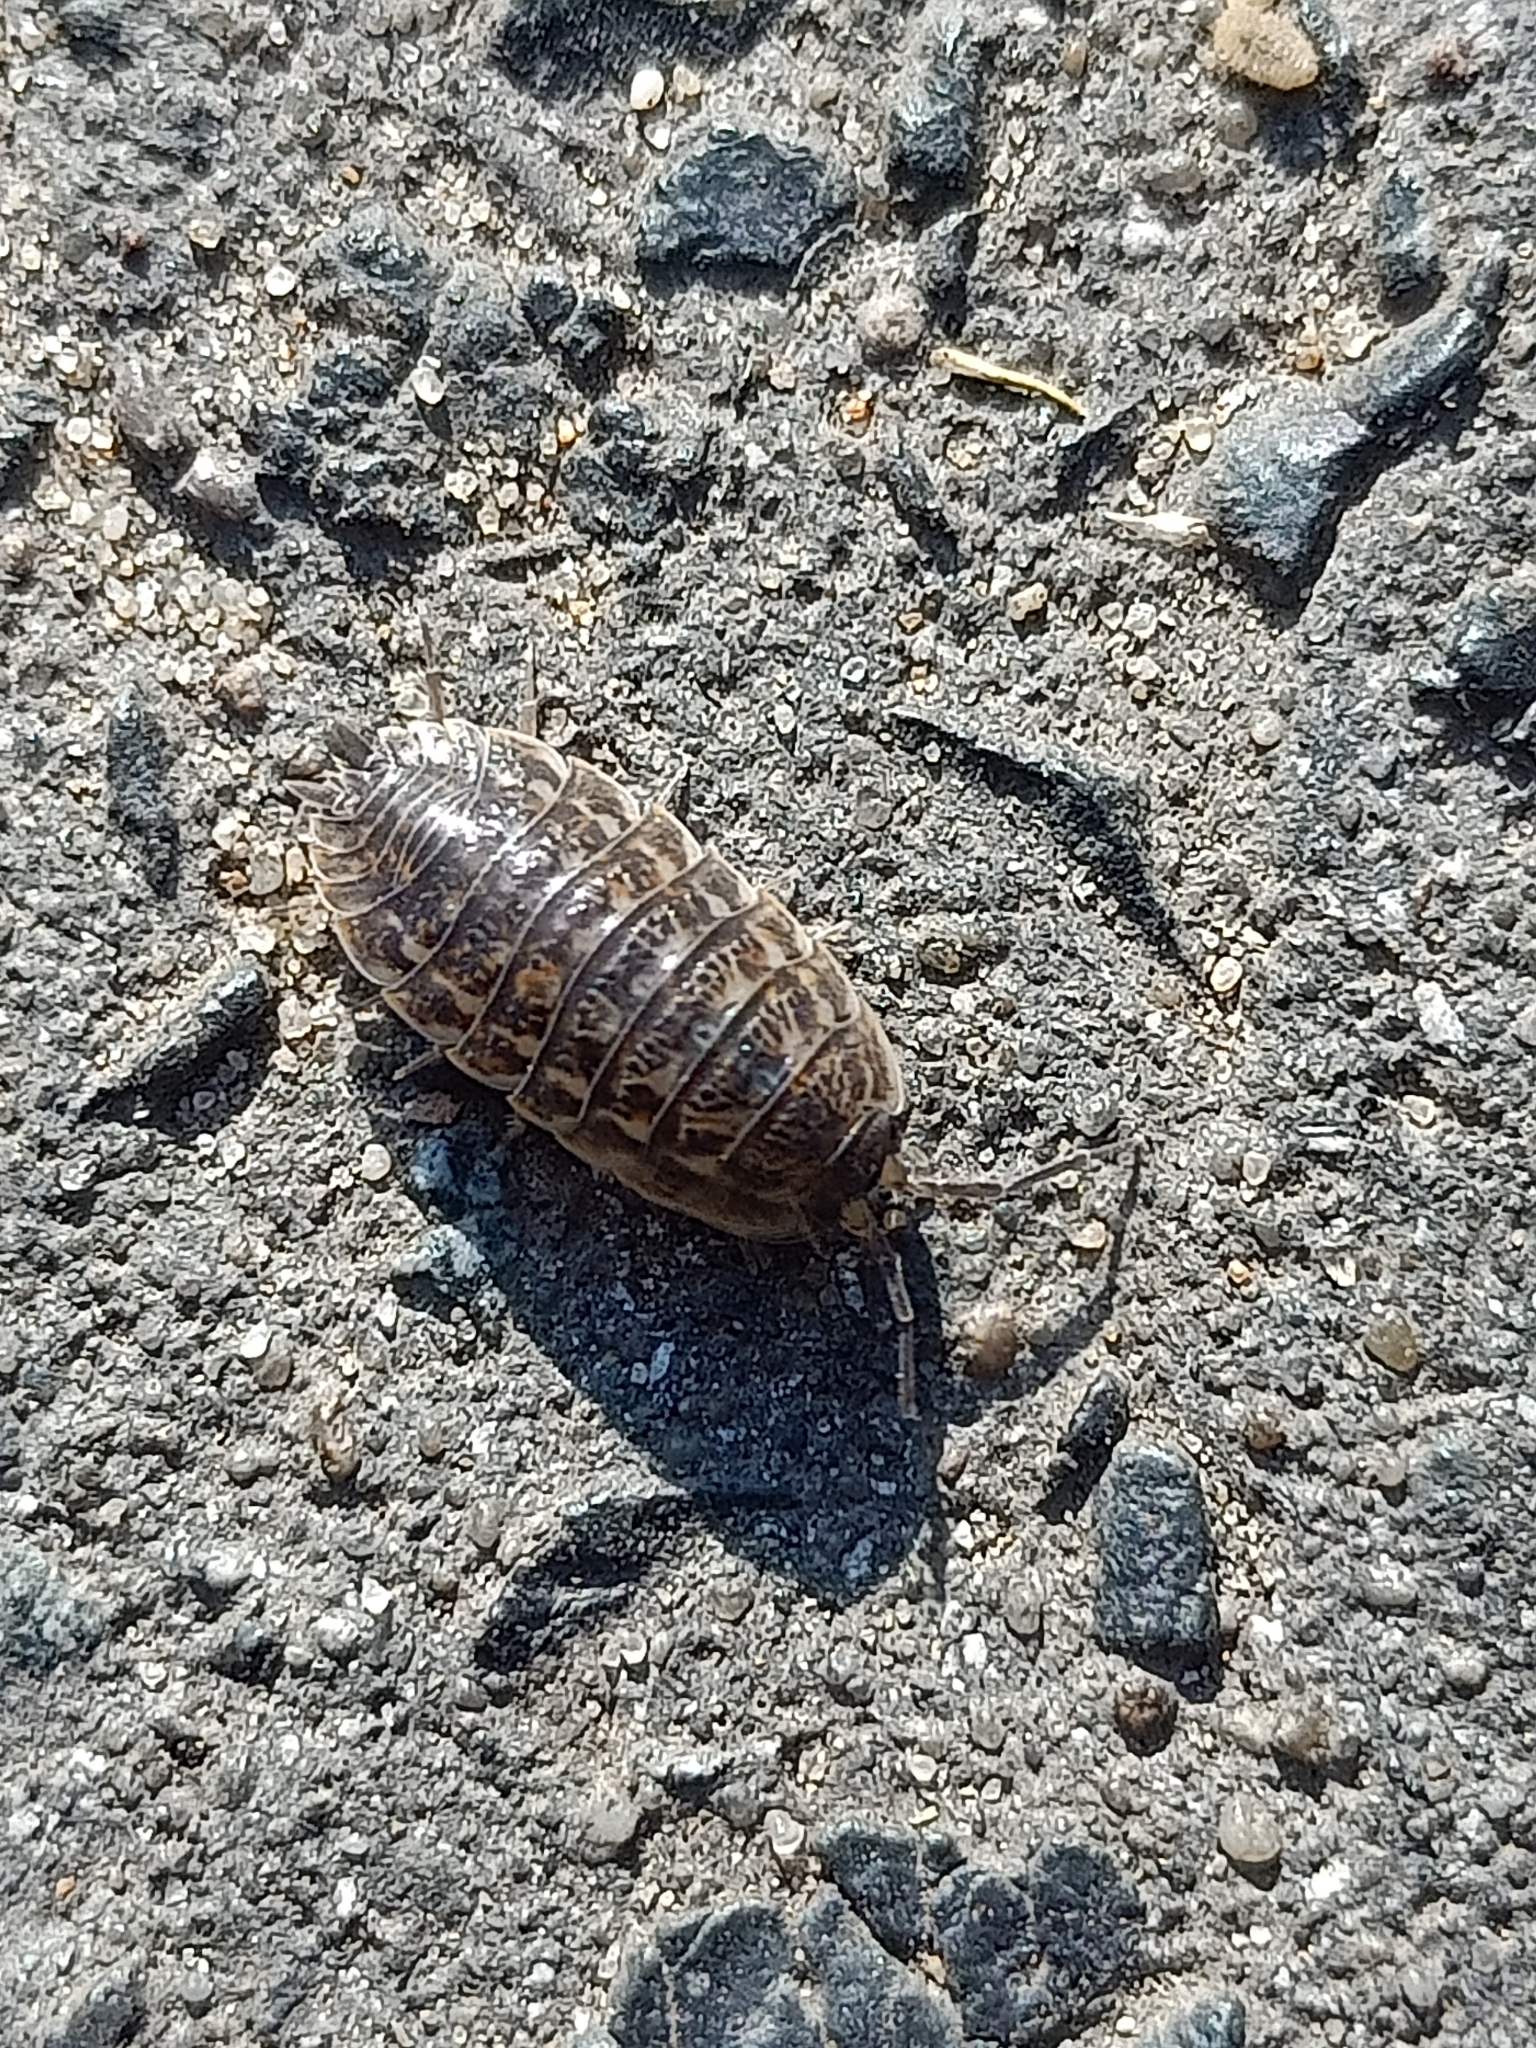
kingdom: Animalia
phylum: Arthropoda
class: Malacostraca
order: Isopoda
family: Trachelipodidae
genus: Trachelipus
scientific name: Trachelipus rathkii
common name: Isopod
